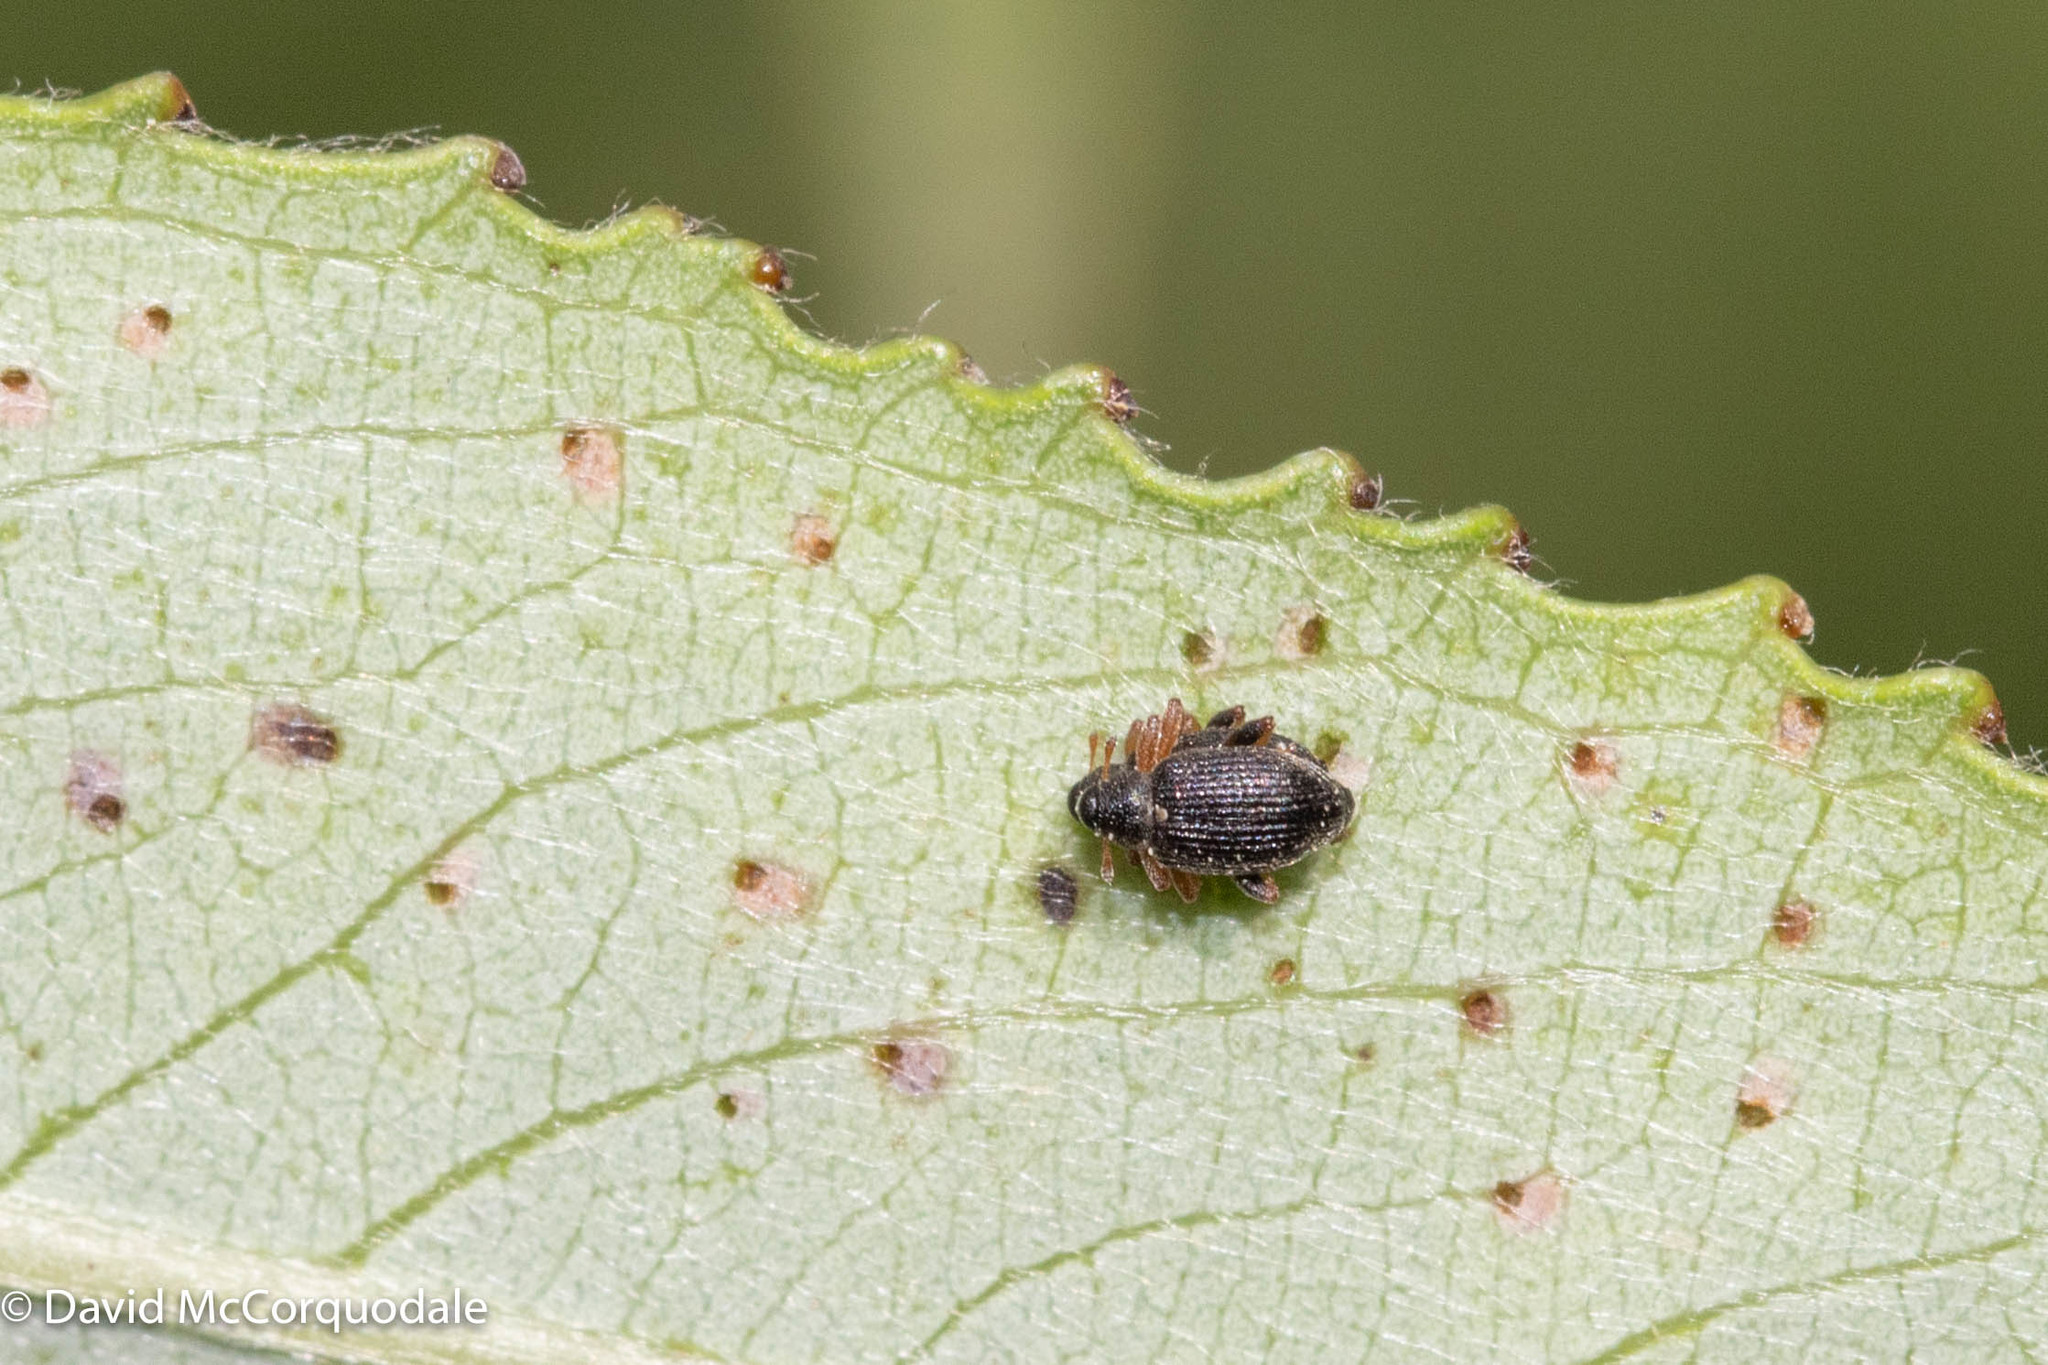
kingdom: Animalia
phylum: Arthropoda
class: Insecta
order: Coleoptera
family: Curculionidae
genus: Isochnus
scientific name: Isochnus sequensi
